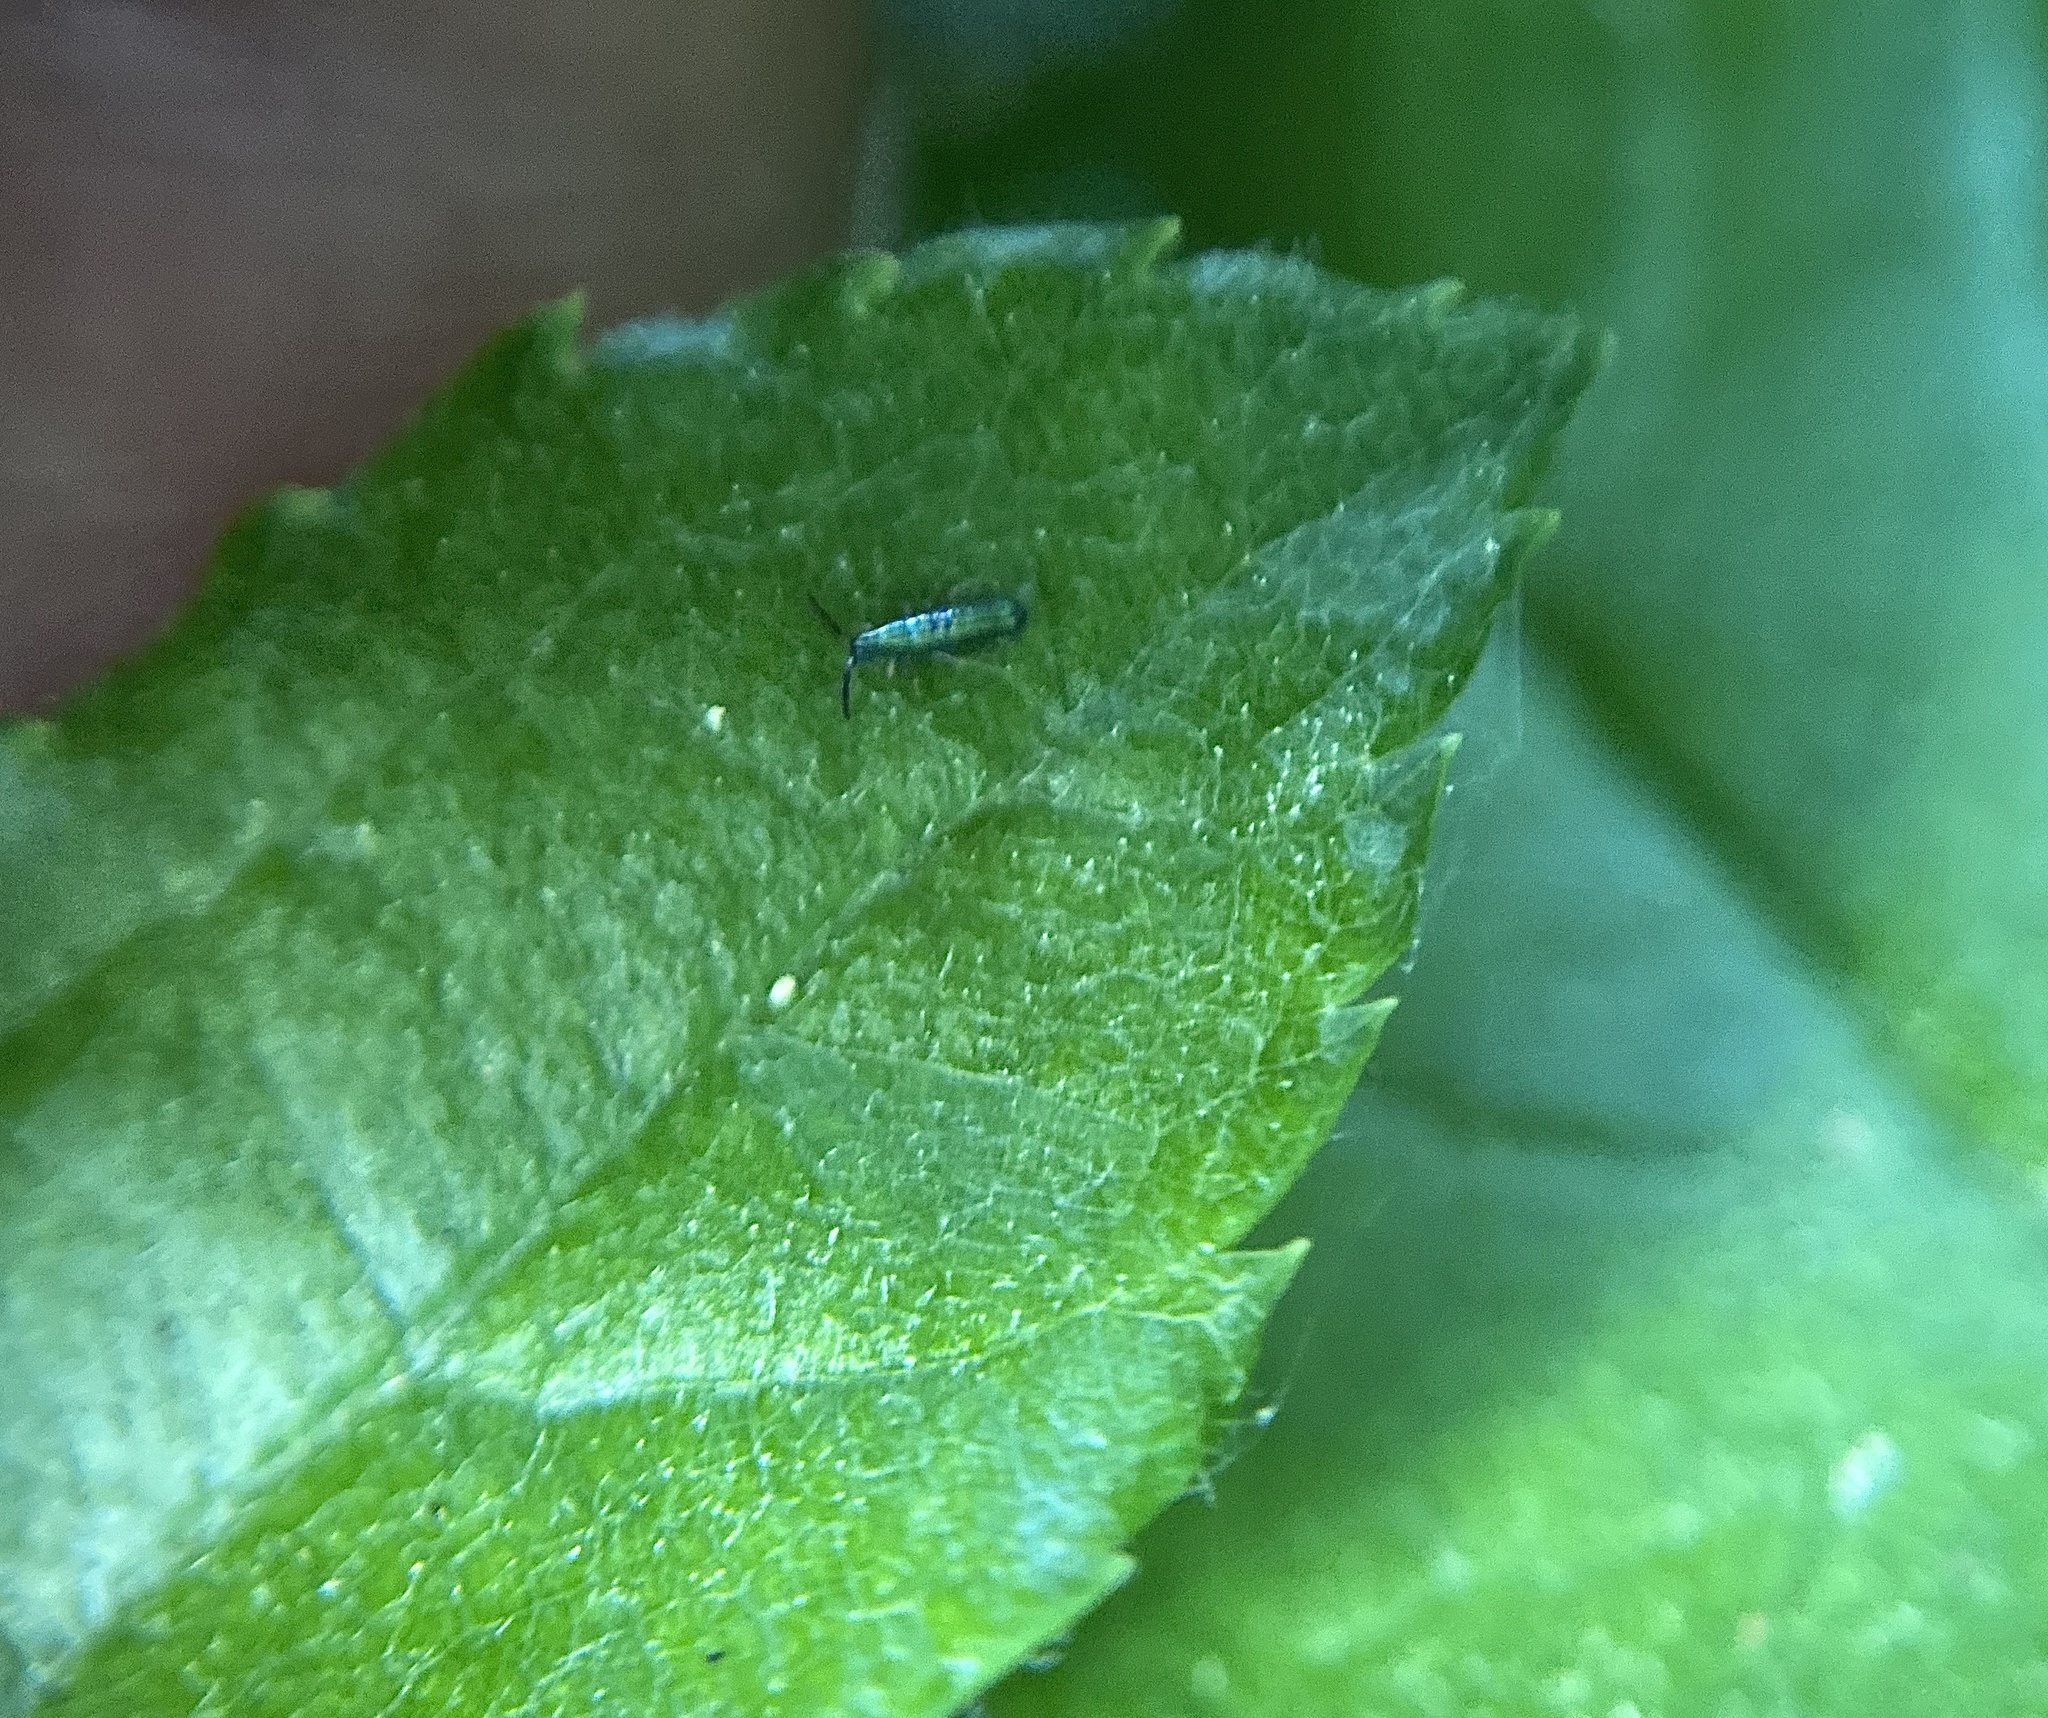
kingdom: Animalia
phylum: Arthropoda
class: Collembola
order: Entomobryomorpha
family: Entomobryidae
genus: Lepidocyrtus
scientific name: Lepidocyrtus paradoxus
